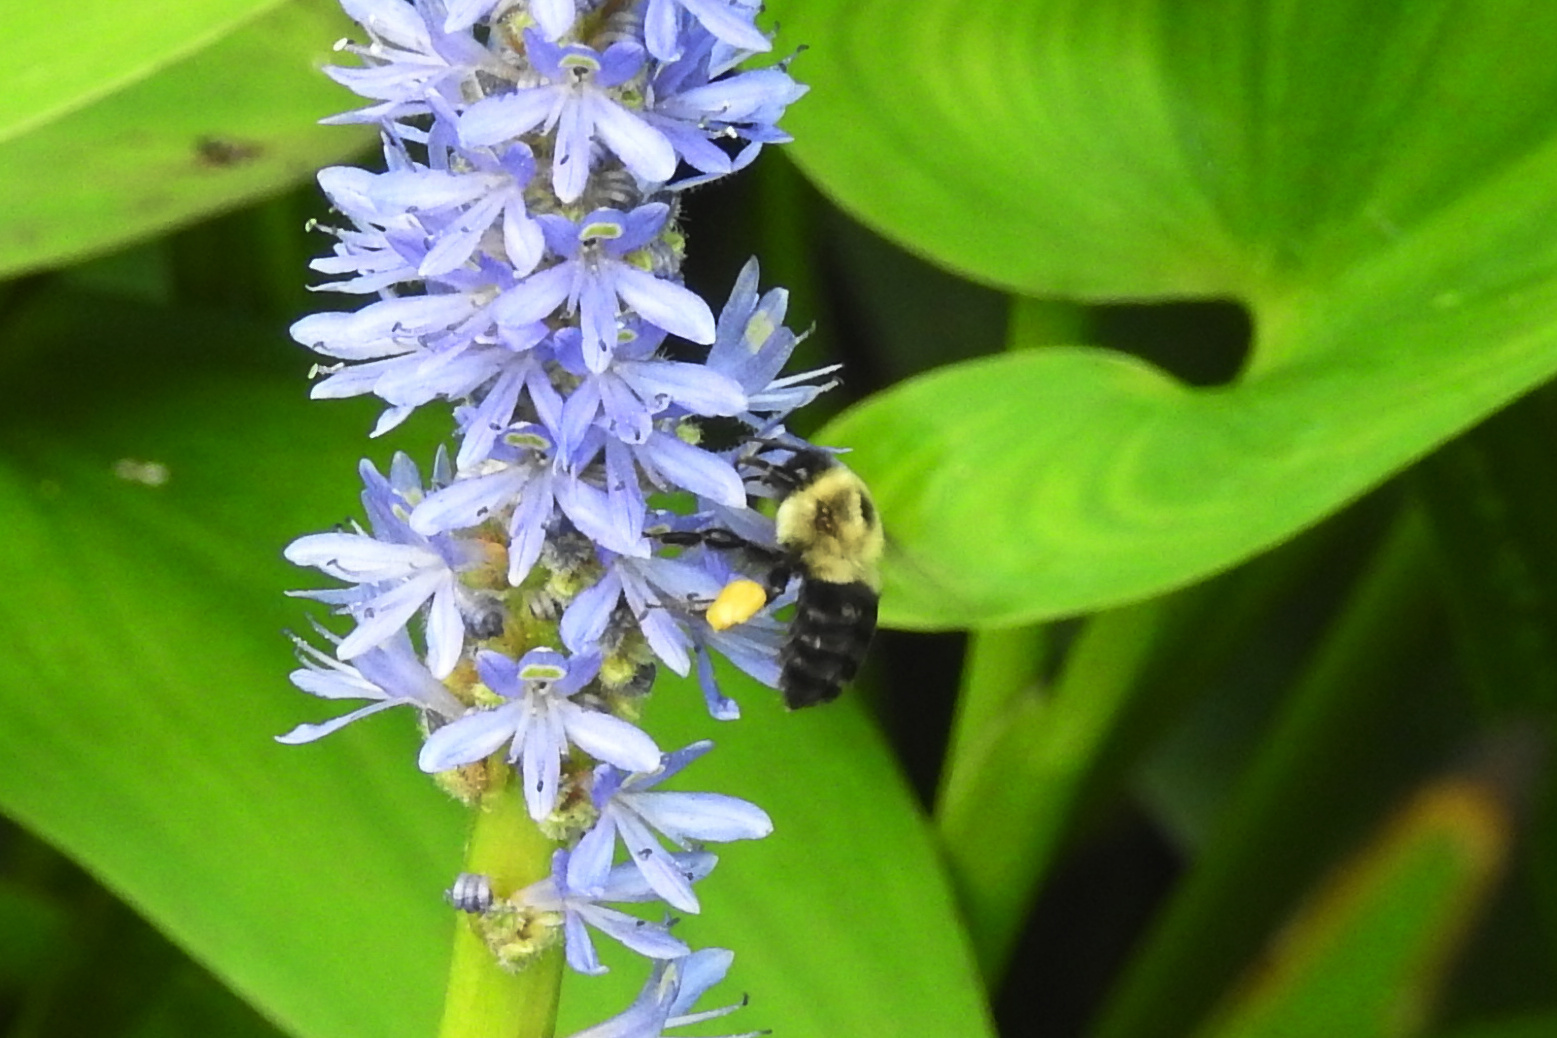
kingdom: Animalia
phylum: Arthropoda
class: Insecta
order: Hymenoptera
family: Apidae
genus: Bombus
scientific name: Bombus impatiens
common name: Common eastern bumble bee
